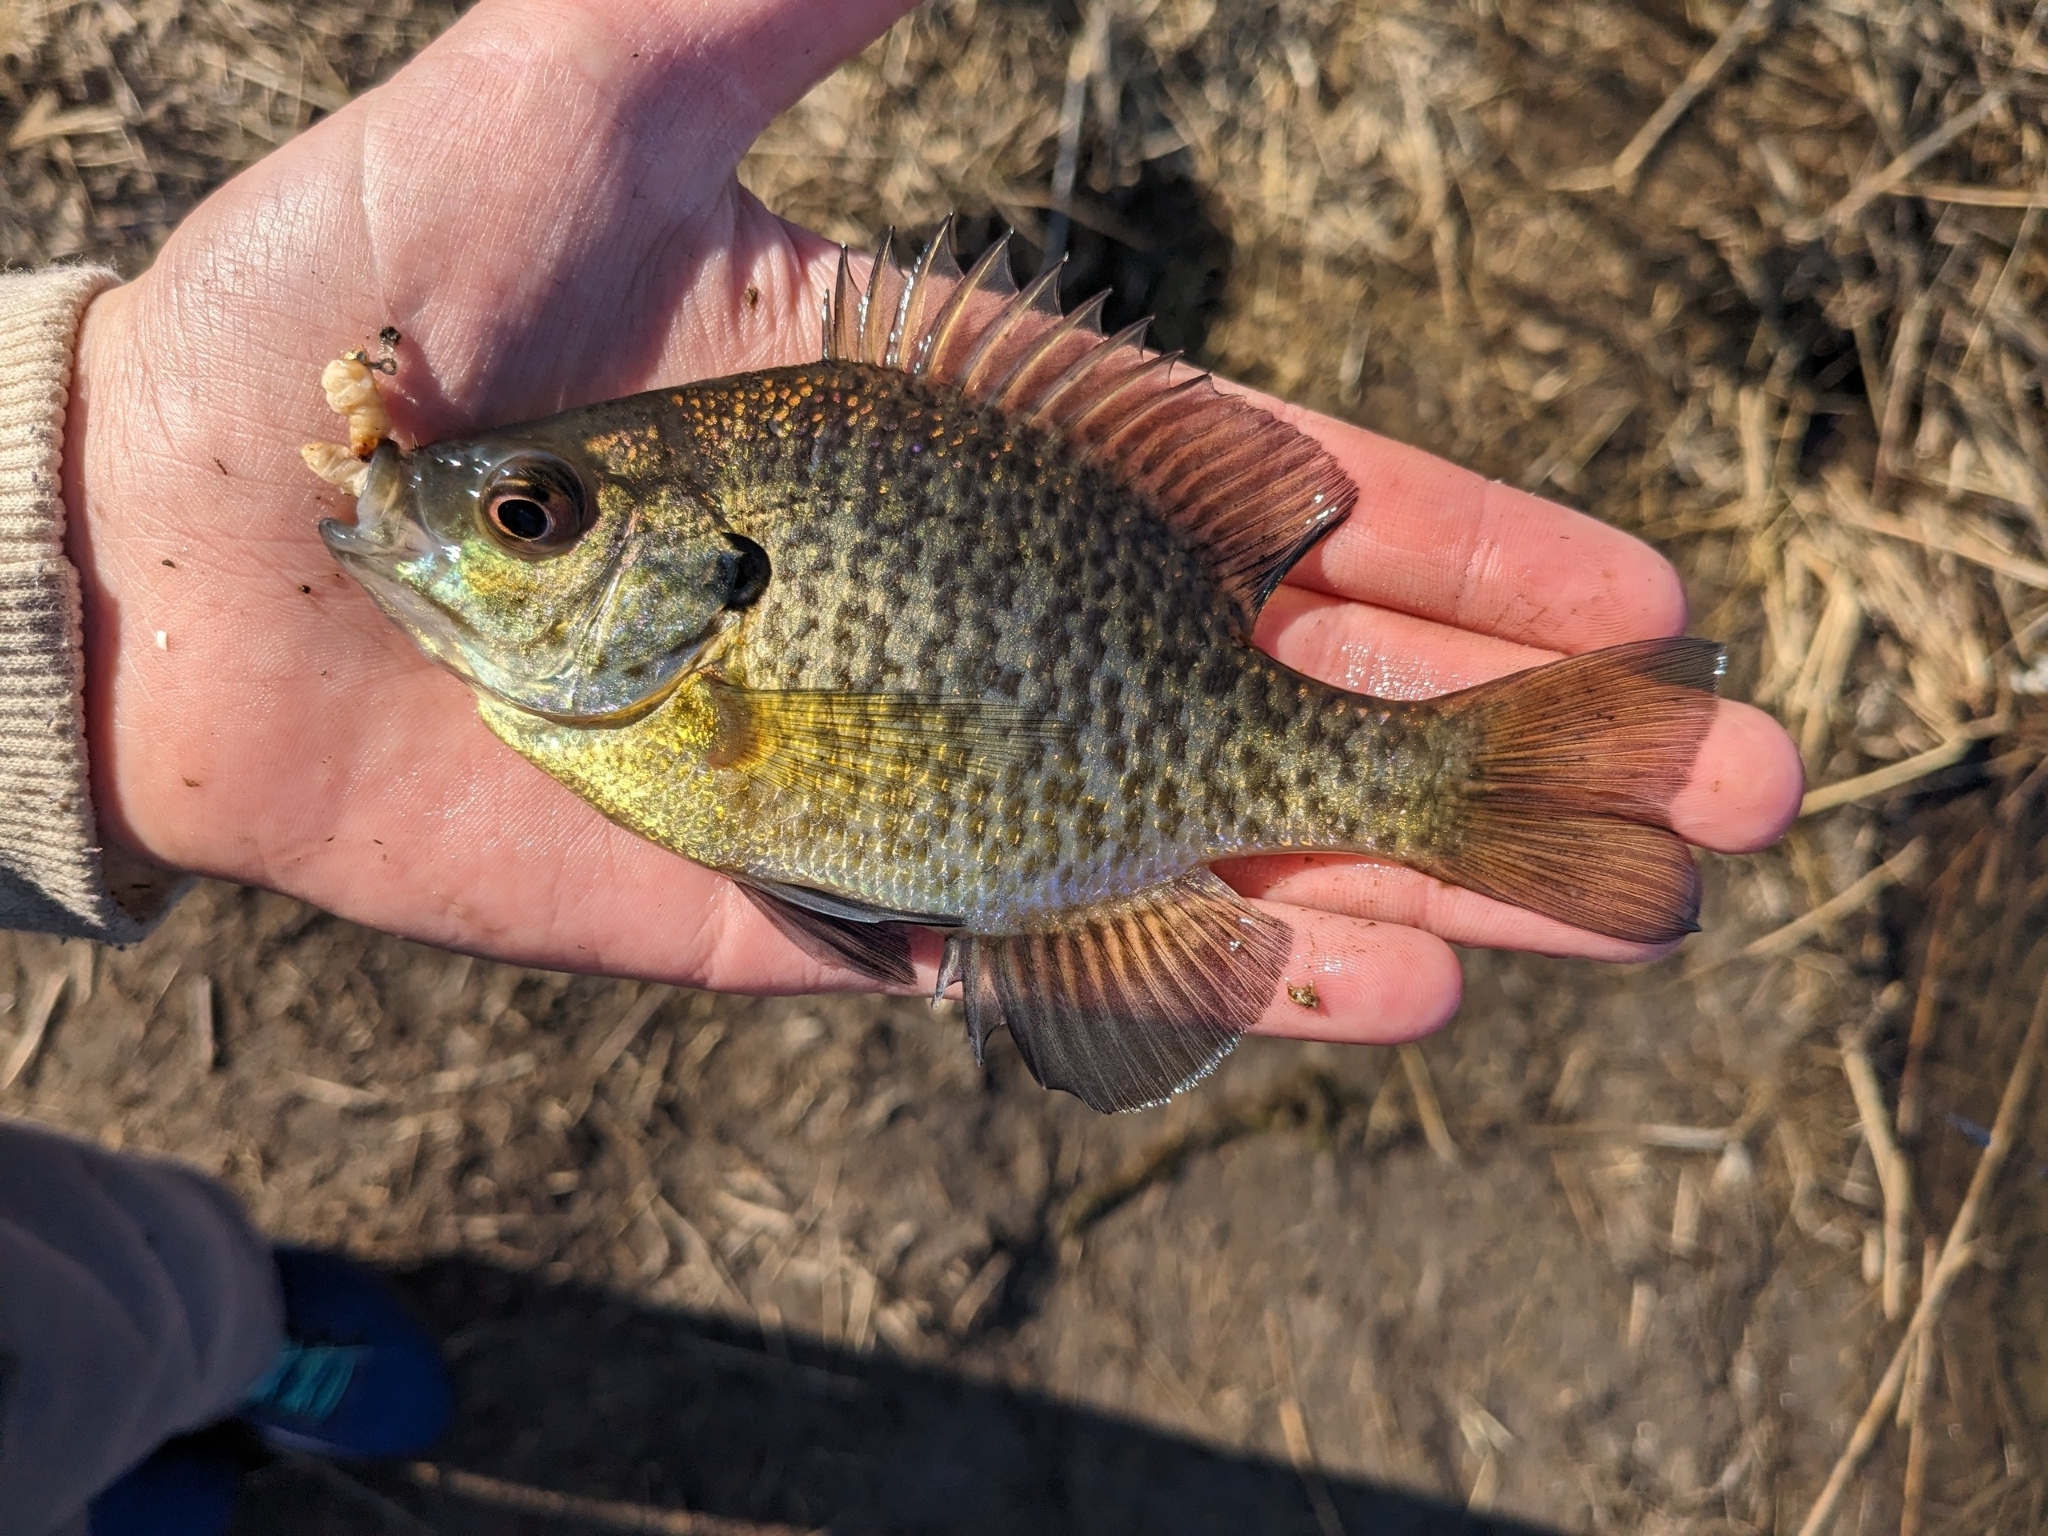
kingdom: Animalia
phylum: Chordata
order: Perciformes
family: Centrarchidae
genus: Lepomis
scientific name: Lepomis macrochirus
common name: Bluegill
